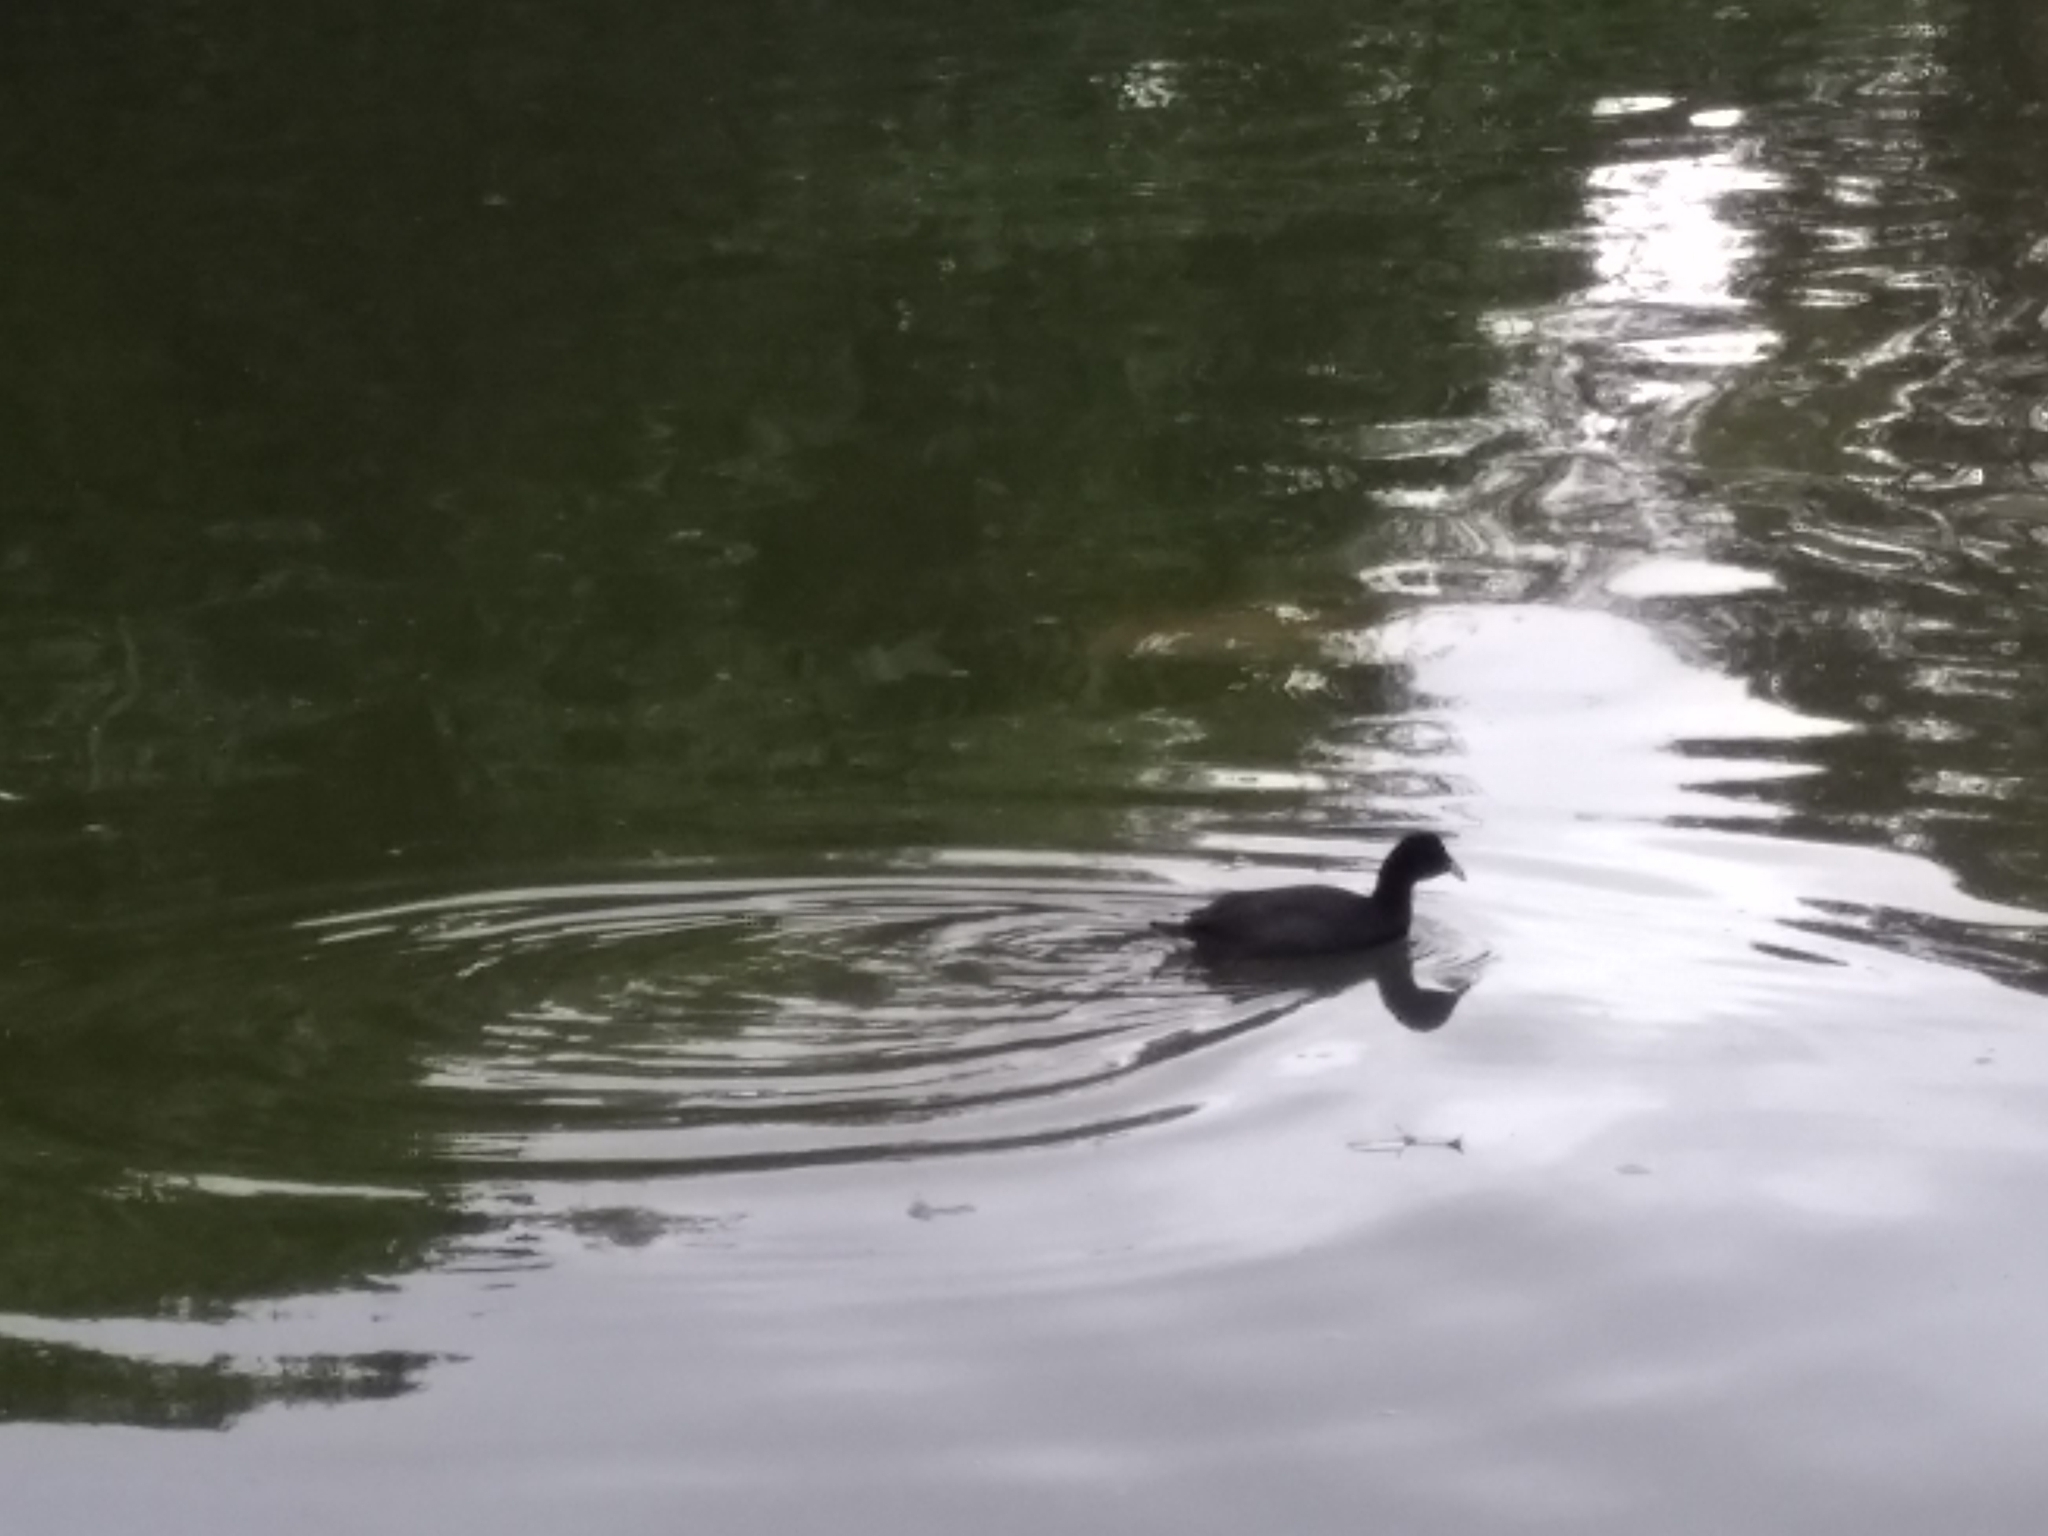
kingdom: Animalia
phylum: Chordata
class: Aves
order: Gruiformes
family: Rallidae
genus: Fulica
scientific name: Fulica rufifrons
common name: Red-fronted coot
